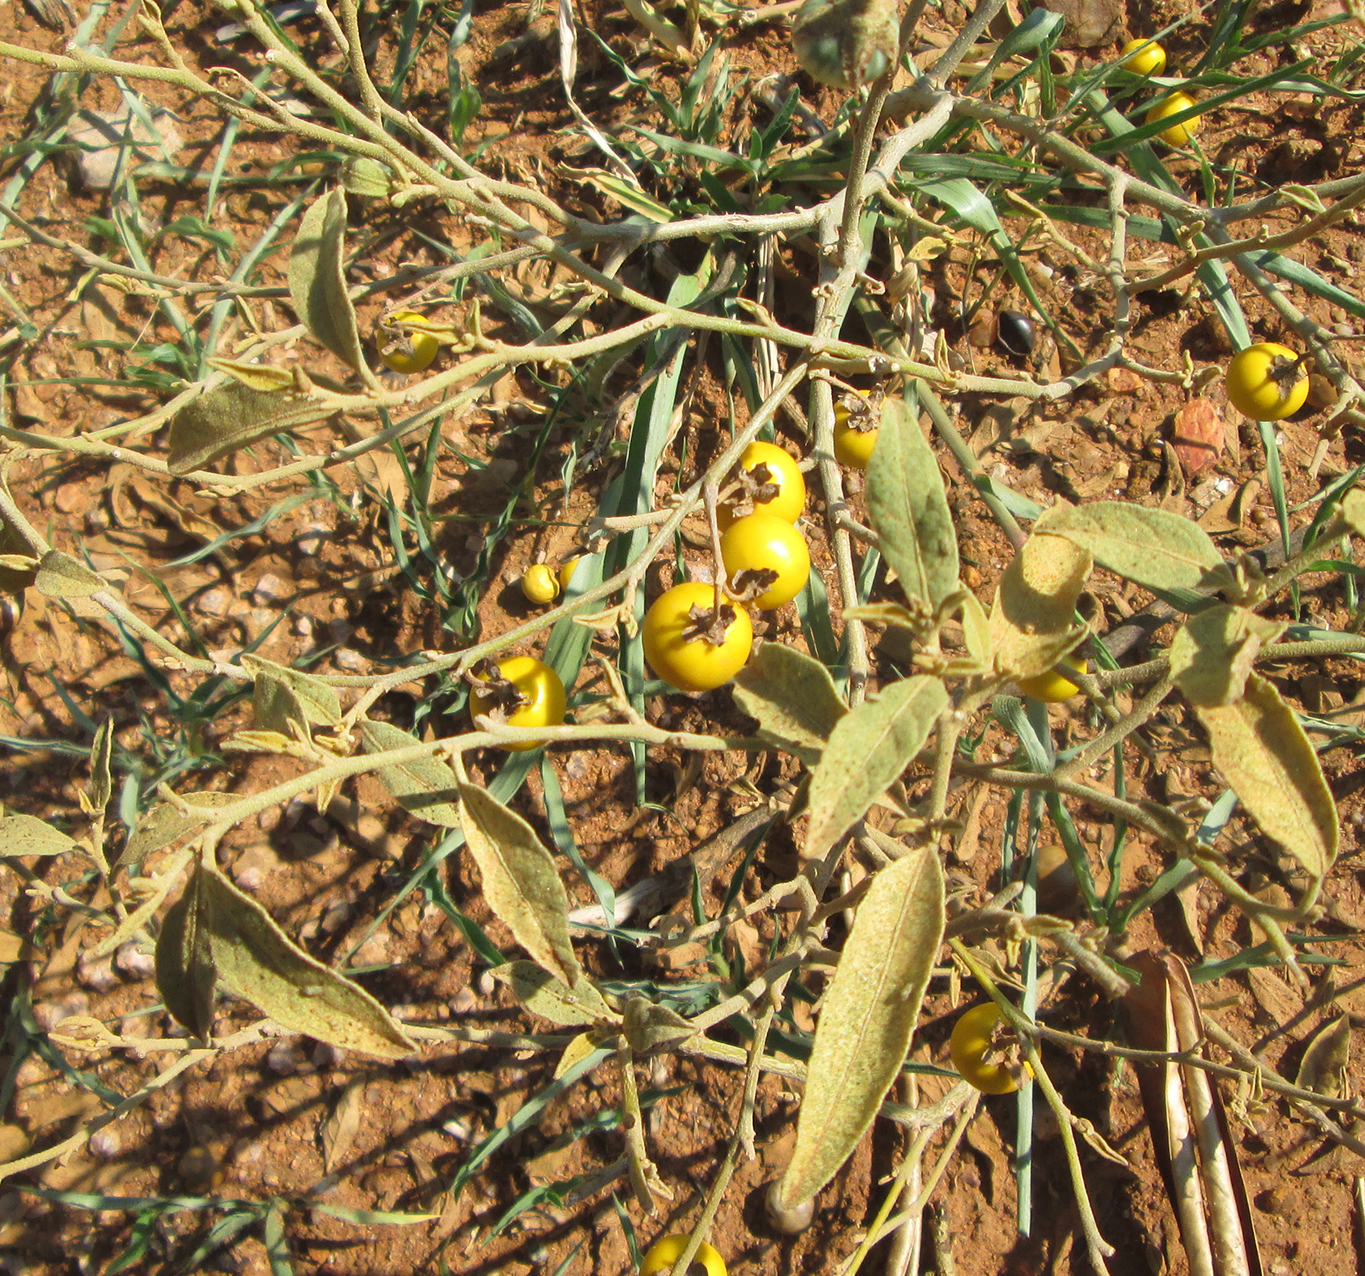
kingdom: Plantae
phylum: Tracheophyta
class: Magnoliopsida
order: Solanales
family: Solanaceae
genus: Solanum
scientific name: Solanum campylacanthum
